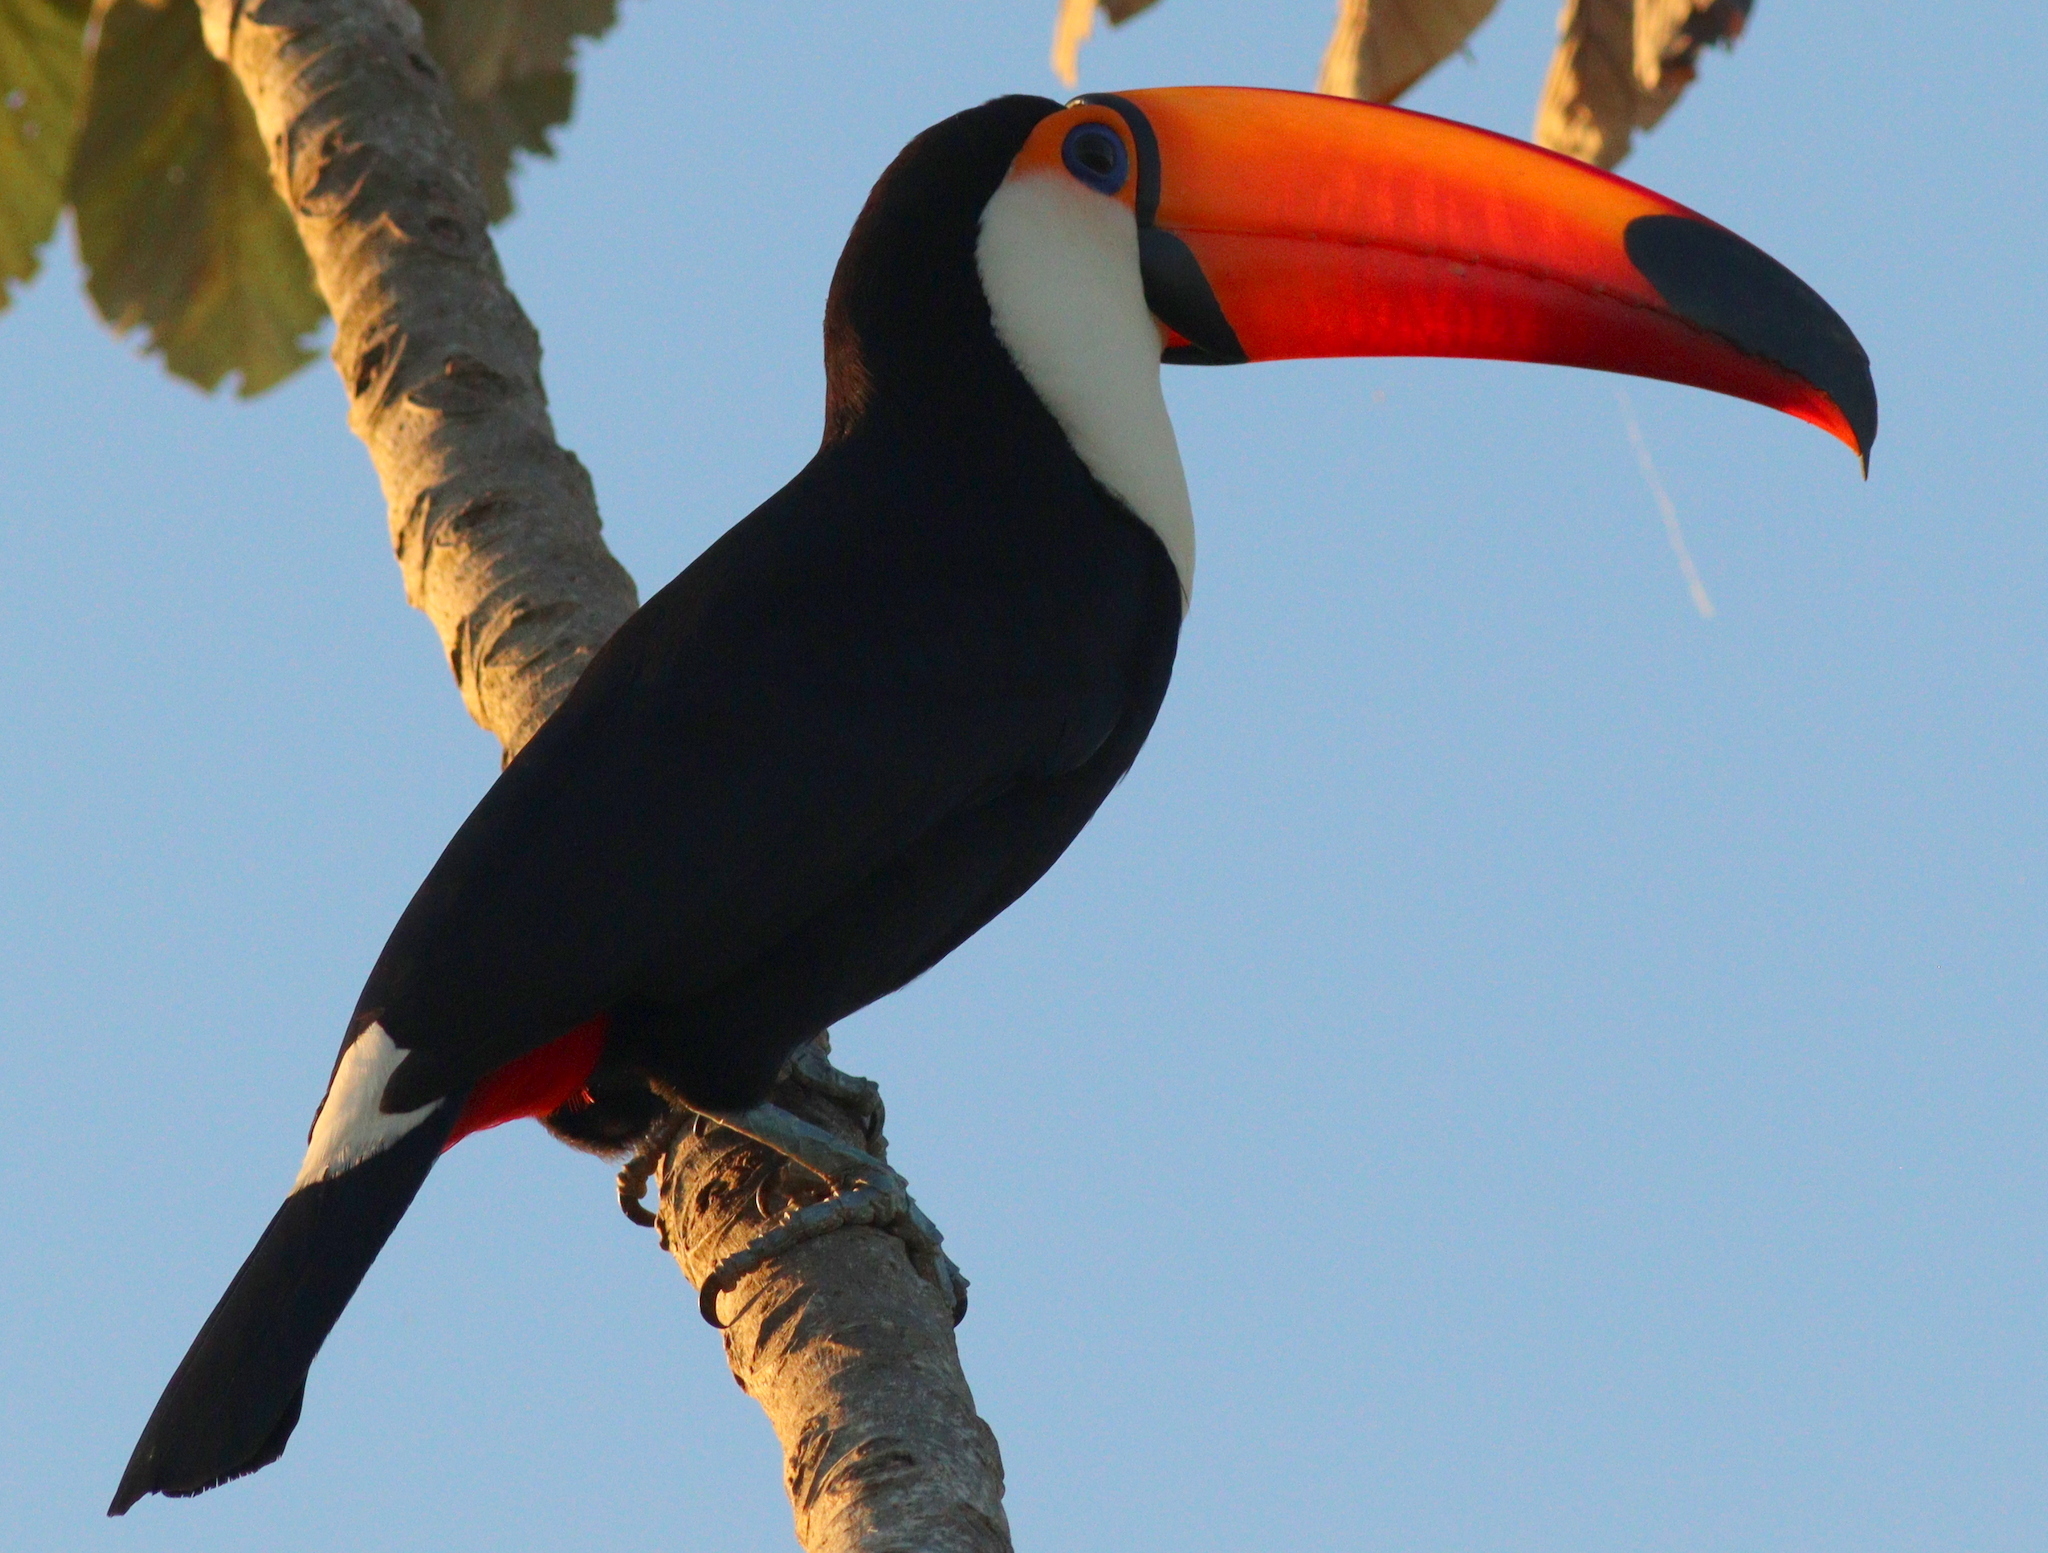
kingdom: Animalia
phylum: Chordata
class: Aves
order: Piciformes
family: Ramphastidae
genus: Ramphastos
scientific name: Ramphastos toco
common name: Toco toucan
